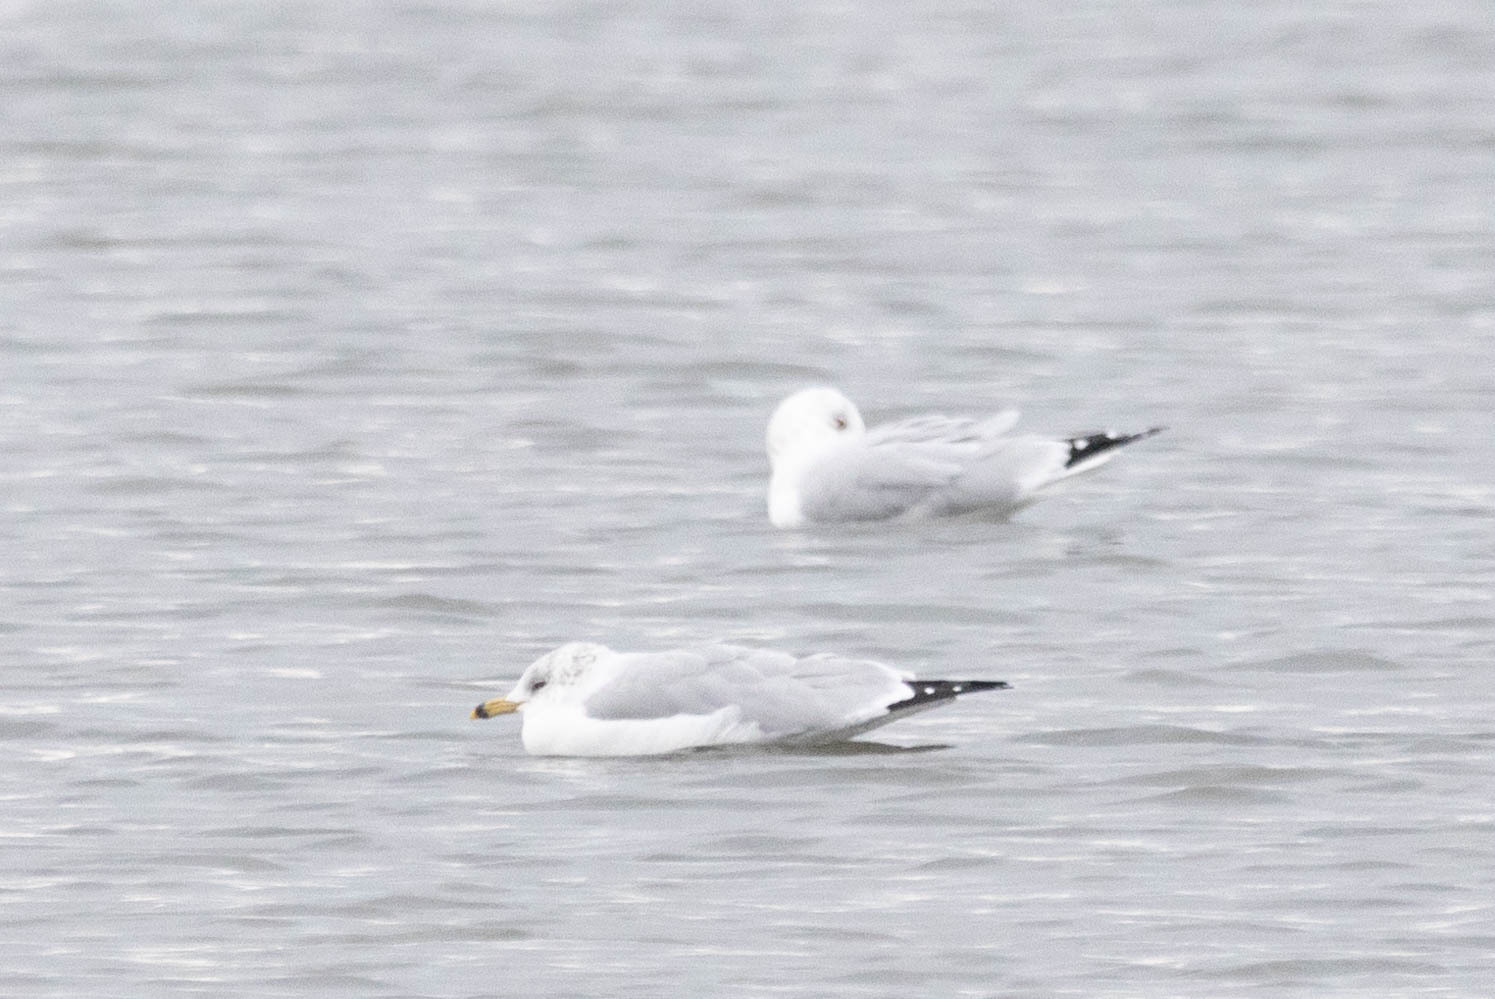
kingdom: Animalia
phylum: Chordata
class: Aves
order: Charadriiformes
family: Laridae
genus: Larus
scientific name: Larus delawarensis
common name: Ring-billed gull
